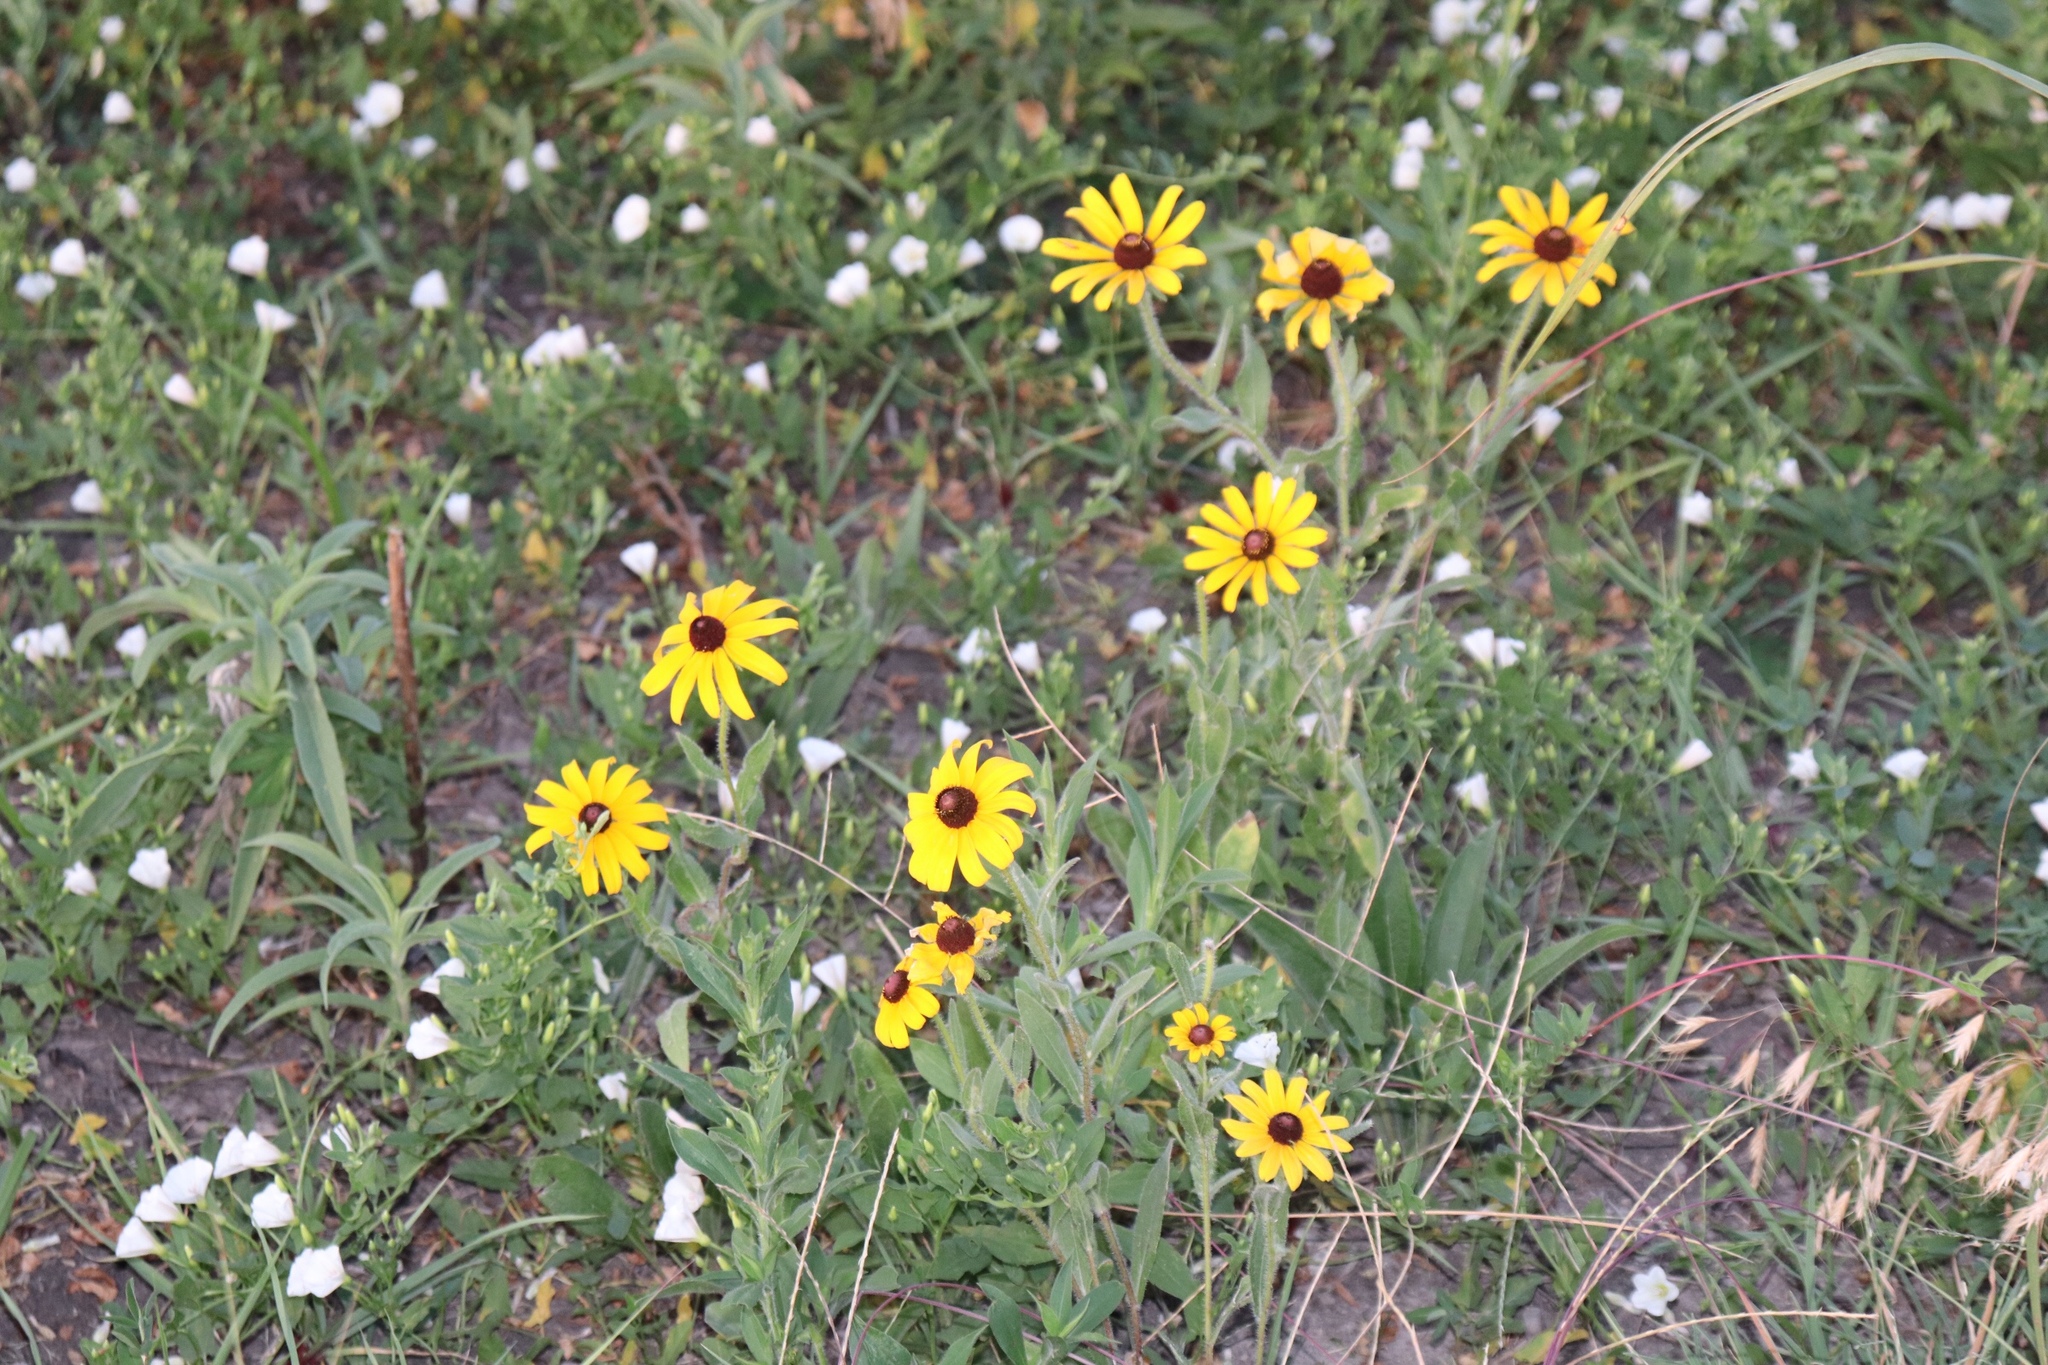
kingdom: Plantae
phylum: Tracheophyta
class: Magnoliopsida
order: Asterales
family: Asteraceae
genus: Rudbeckia
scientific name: Rudbeckia hirta
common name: Black-eyed-susan
